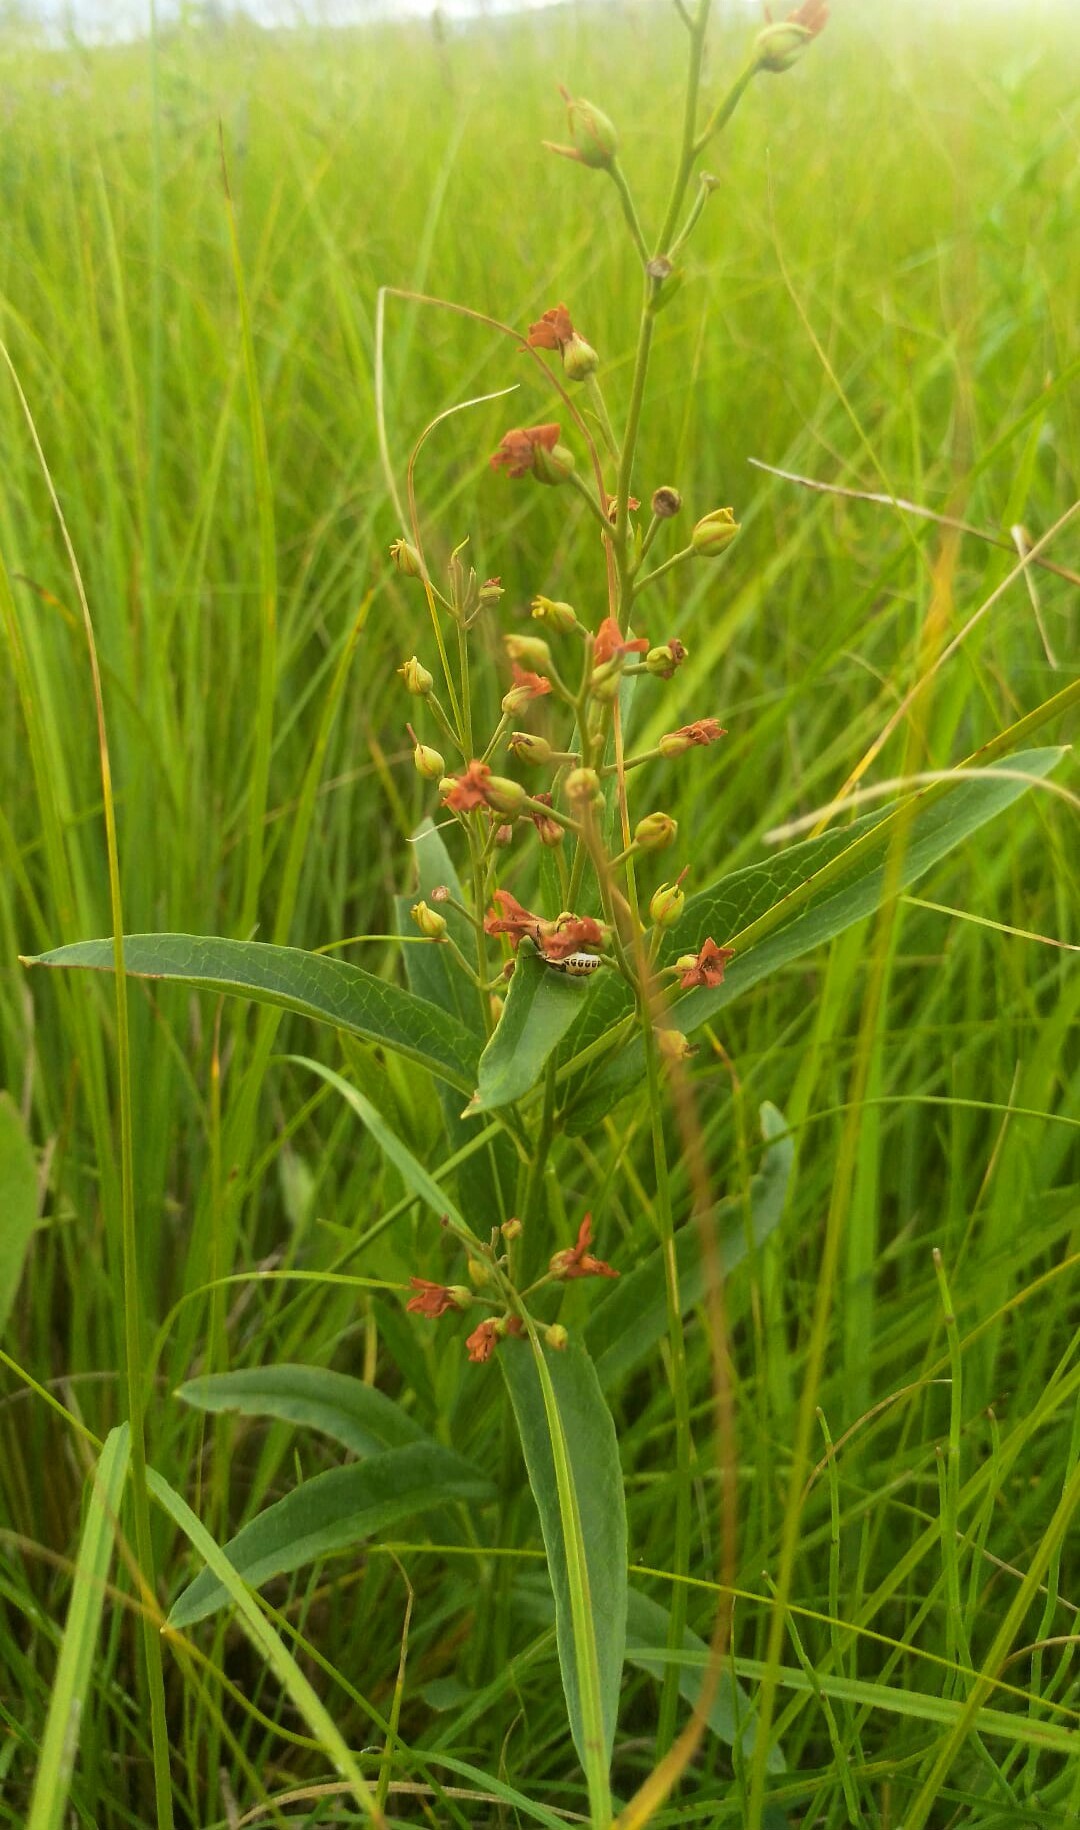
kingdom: Plantae
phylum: Tracheophyta
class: Magnoliopsida
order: Ericales
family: Primulaceae
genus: Lysimachia
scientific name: Lysimachia davurica
